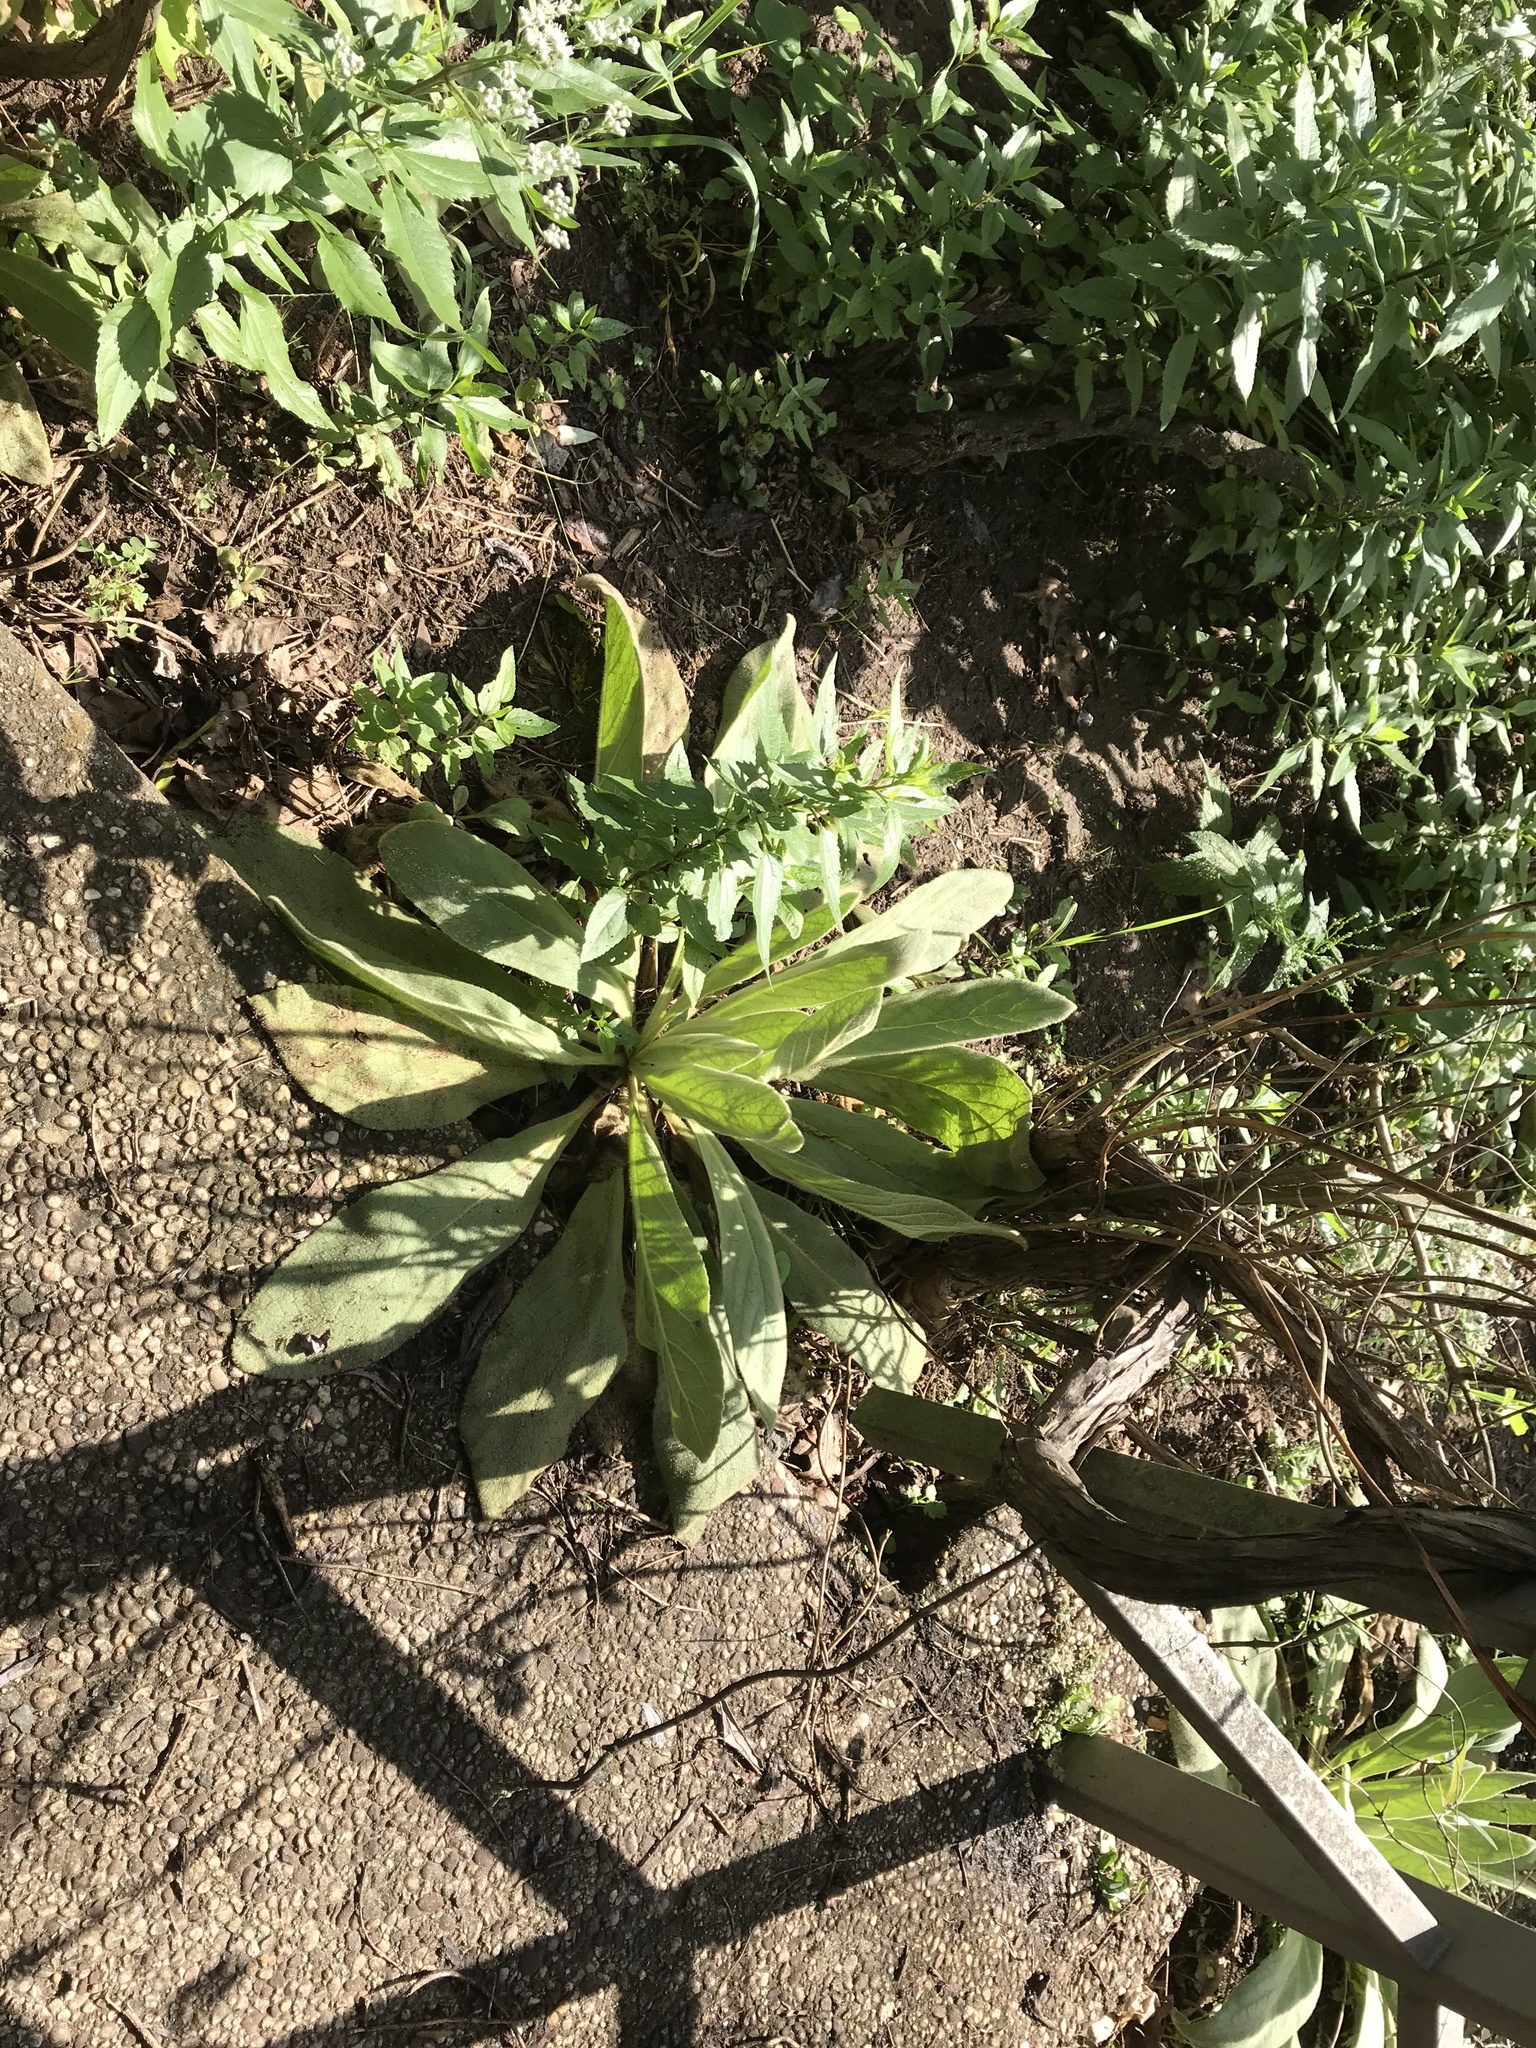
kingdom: Plantae
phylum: Tracheophyta
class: Magnoliopsida
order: Lamiales
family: Scrophulariaceae
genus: Verbascum
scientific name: Verbascum thapsus
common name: Common mullein
